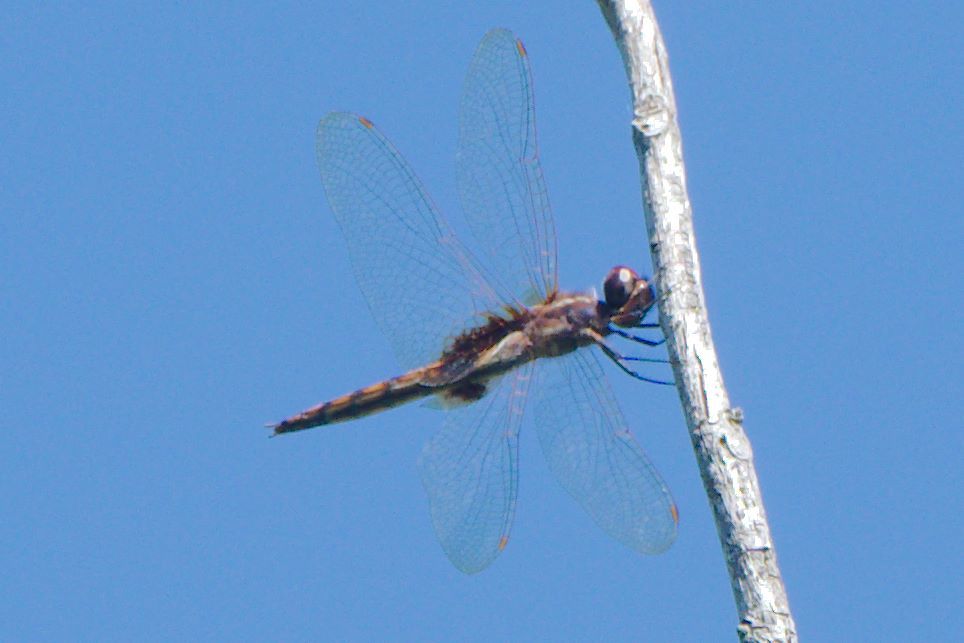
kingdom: Animalia
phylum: Arthropoda
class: Insecta
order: Odonata
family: Libellulidae
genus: Miathyria
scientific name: Miathyria marcella
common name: Hyacinth glider
